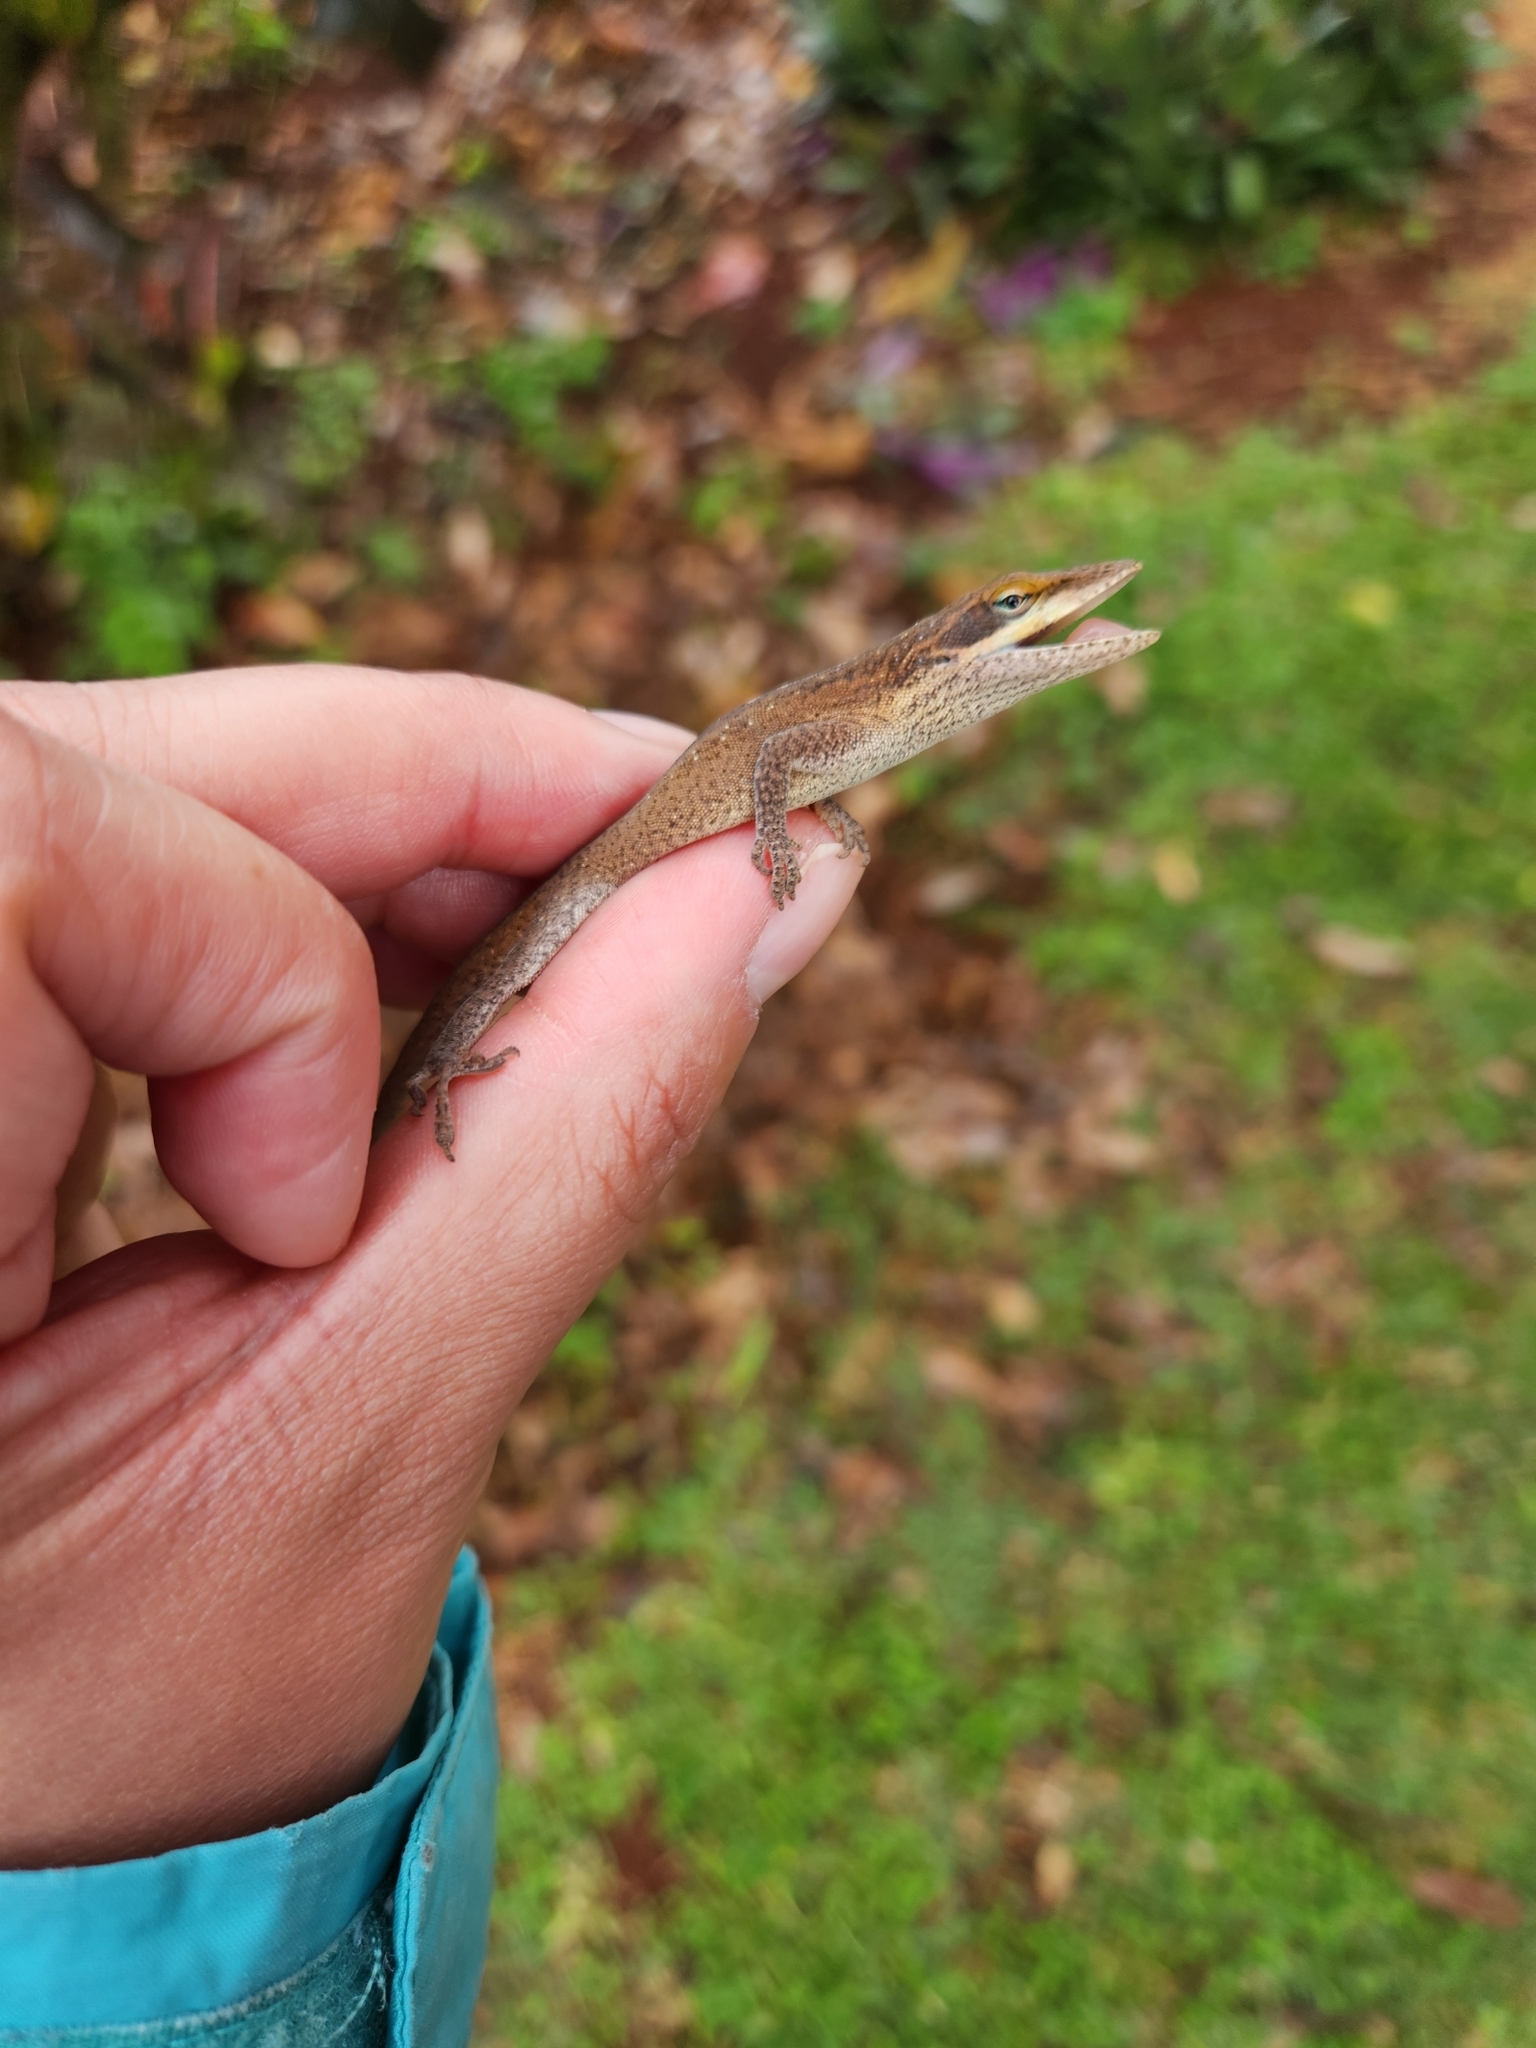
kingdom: Animalia
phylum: Chordata
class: Squamata
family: Dactyloidae
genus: Anolis
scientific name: Anolis carolinensis
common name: Green anole
